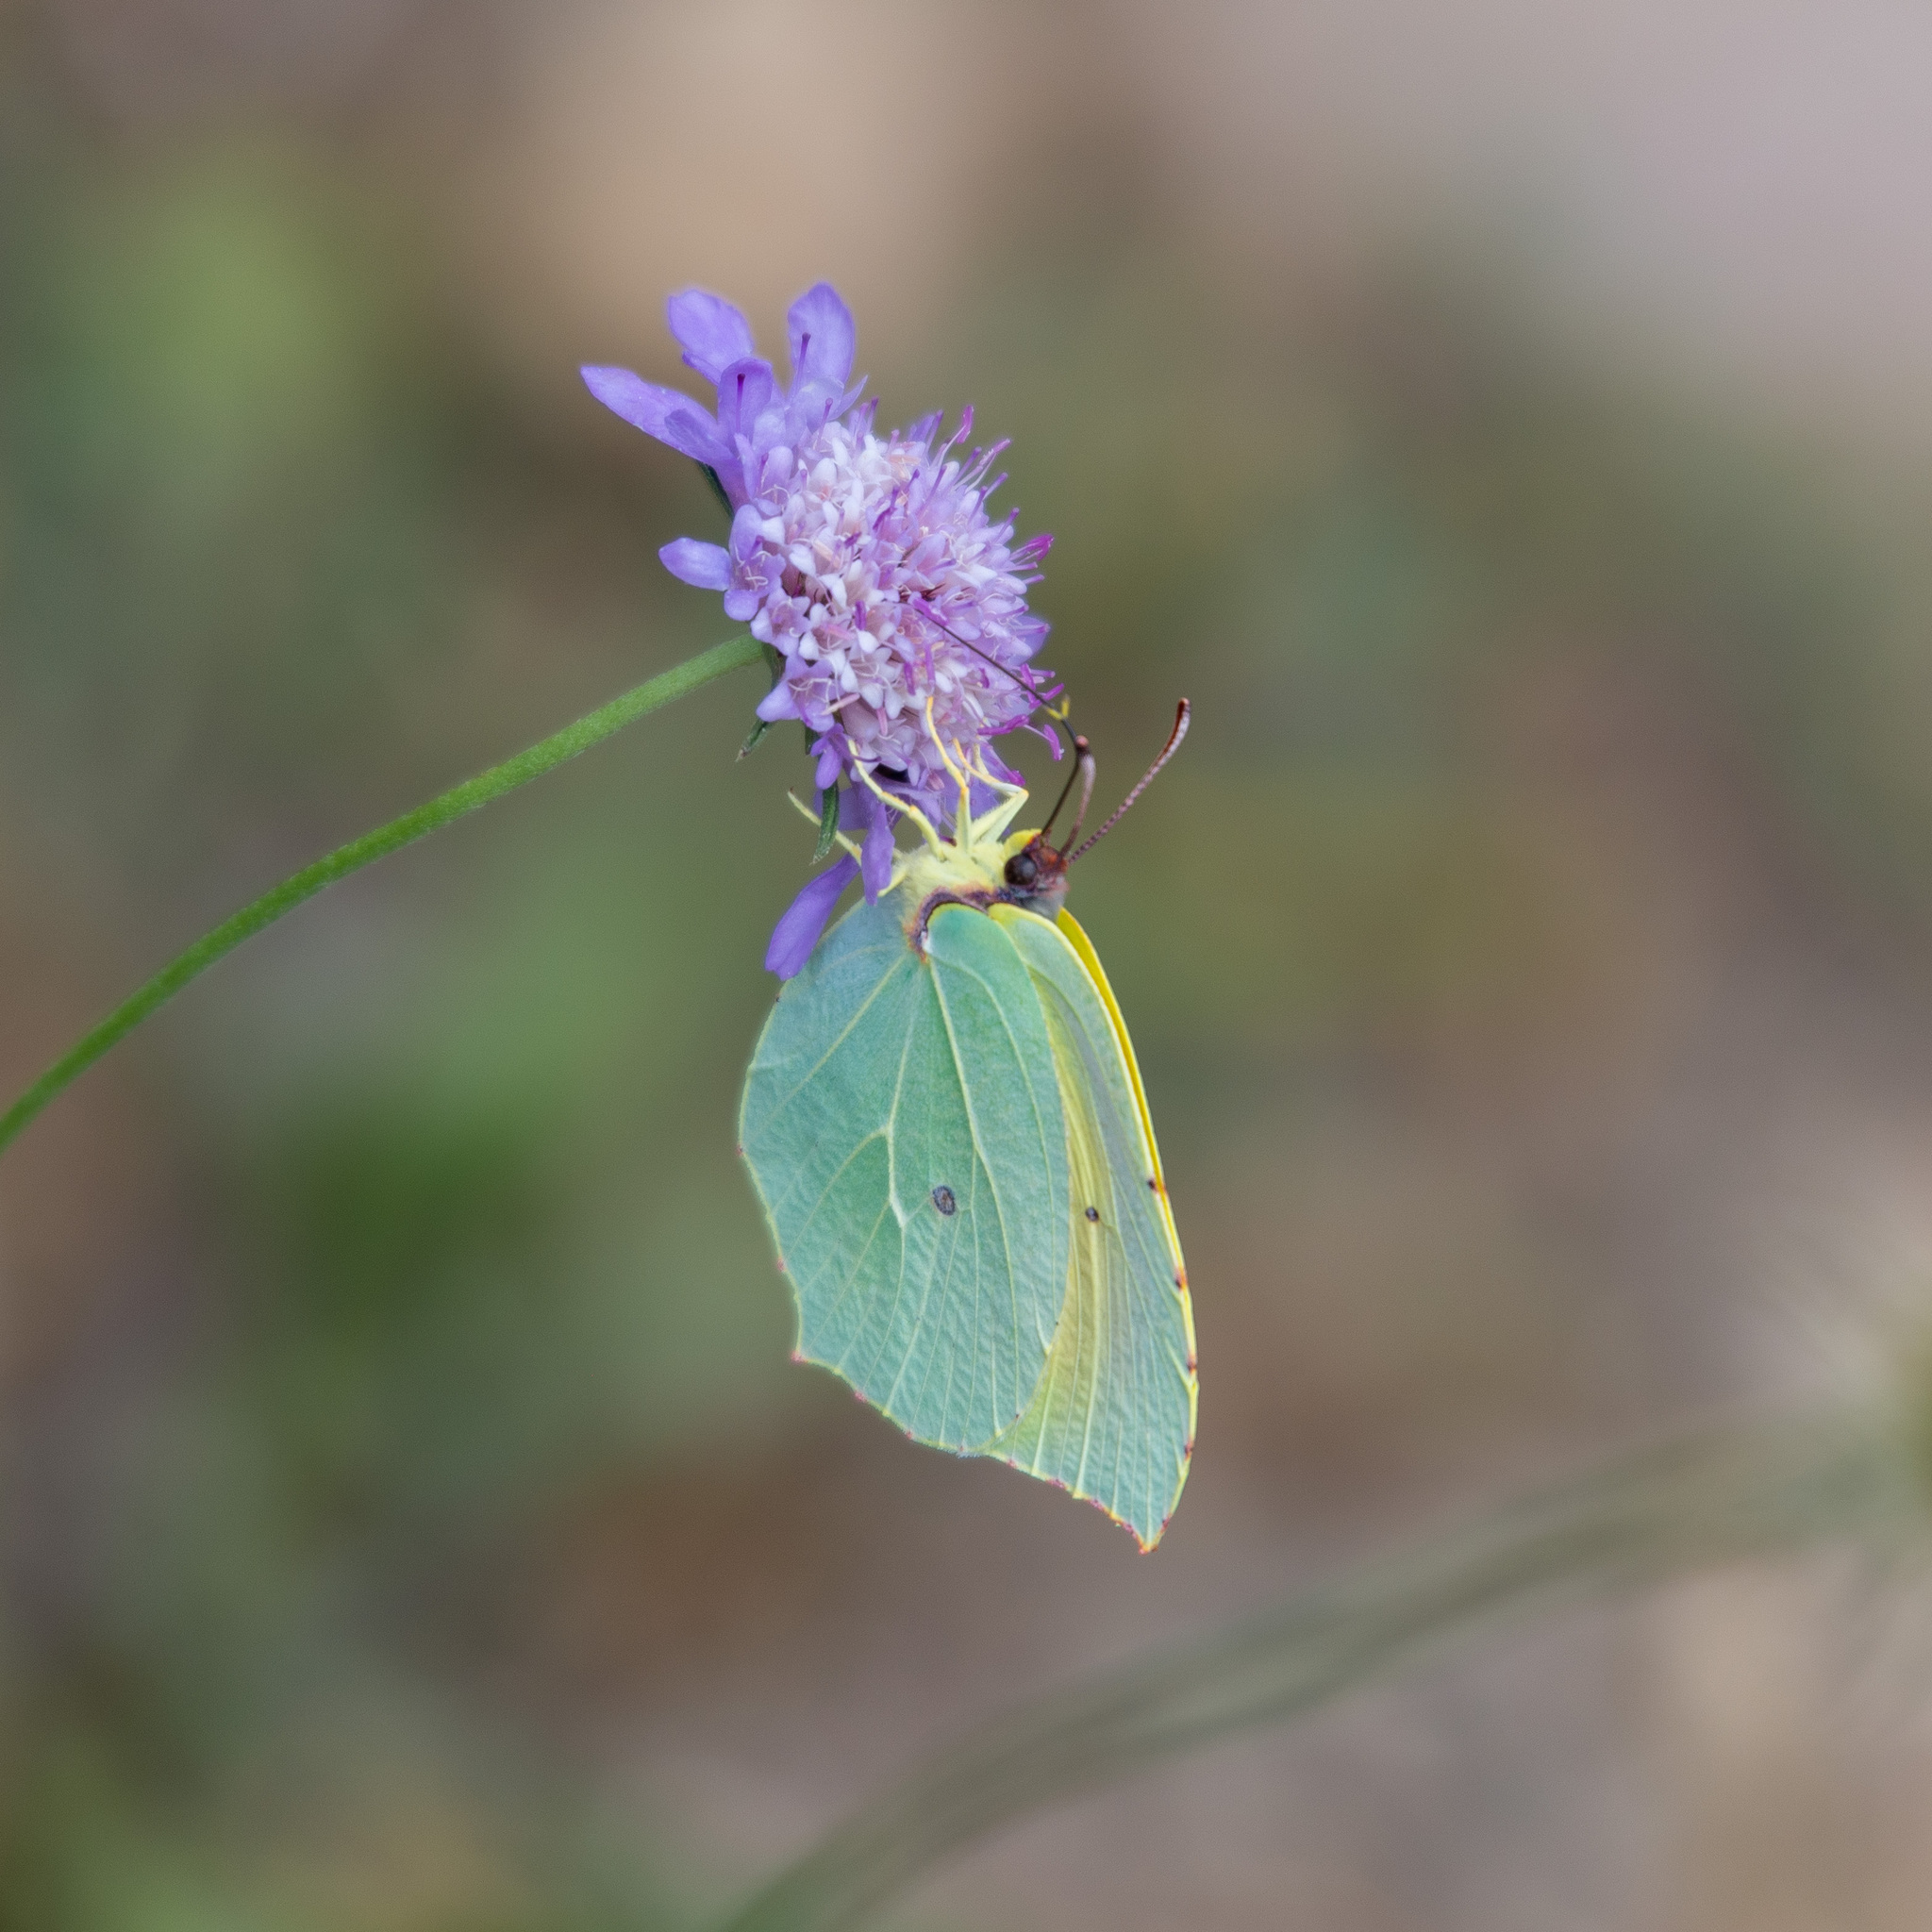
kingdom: Animalia
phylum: Arthropoda
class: Insecta
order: Lepidoptera
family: Pieridae
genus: Gonepteryx
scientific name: Gonepteryx cleopatra
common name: Cleopatra
